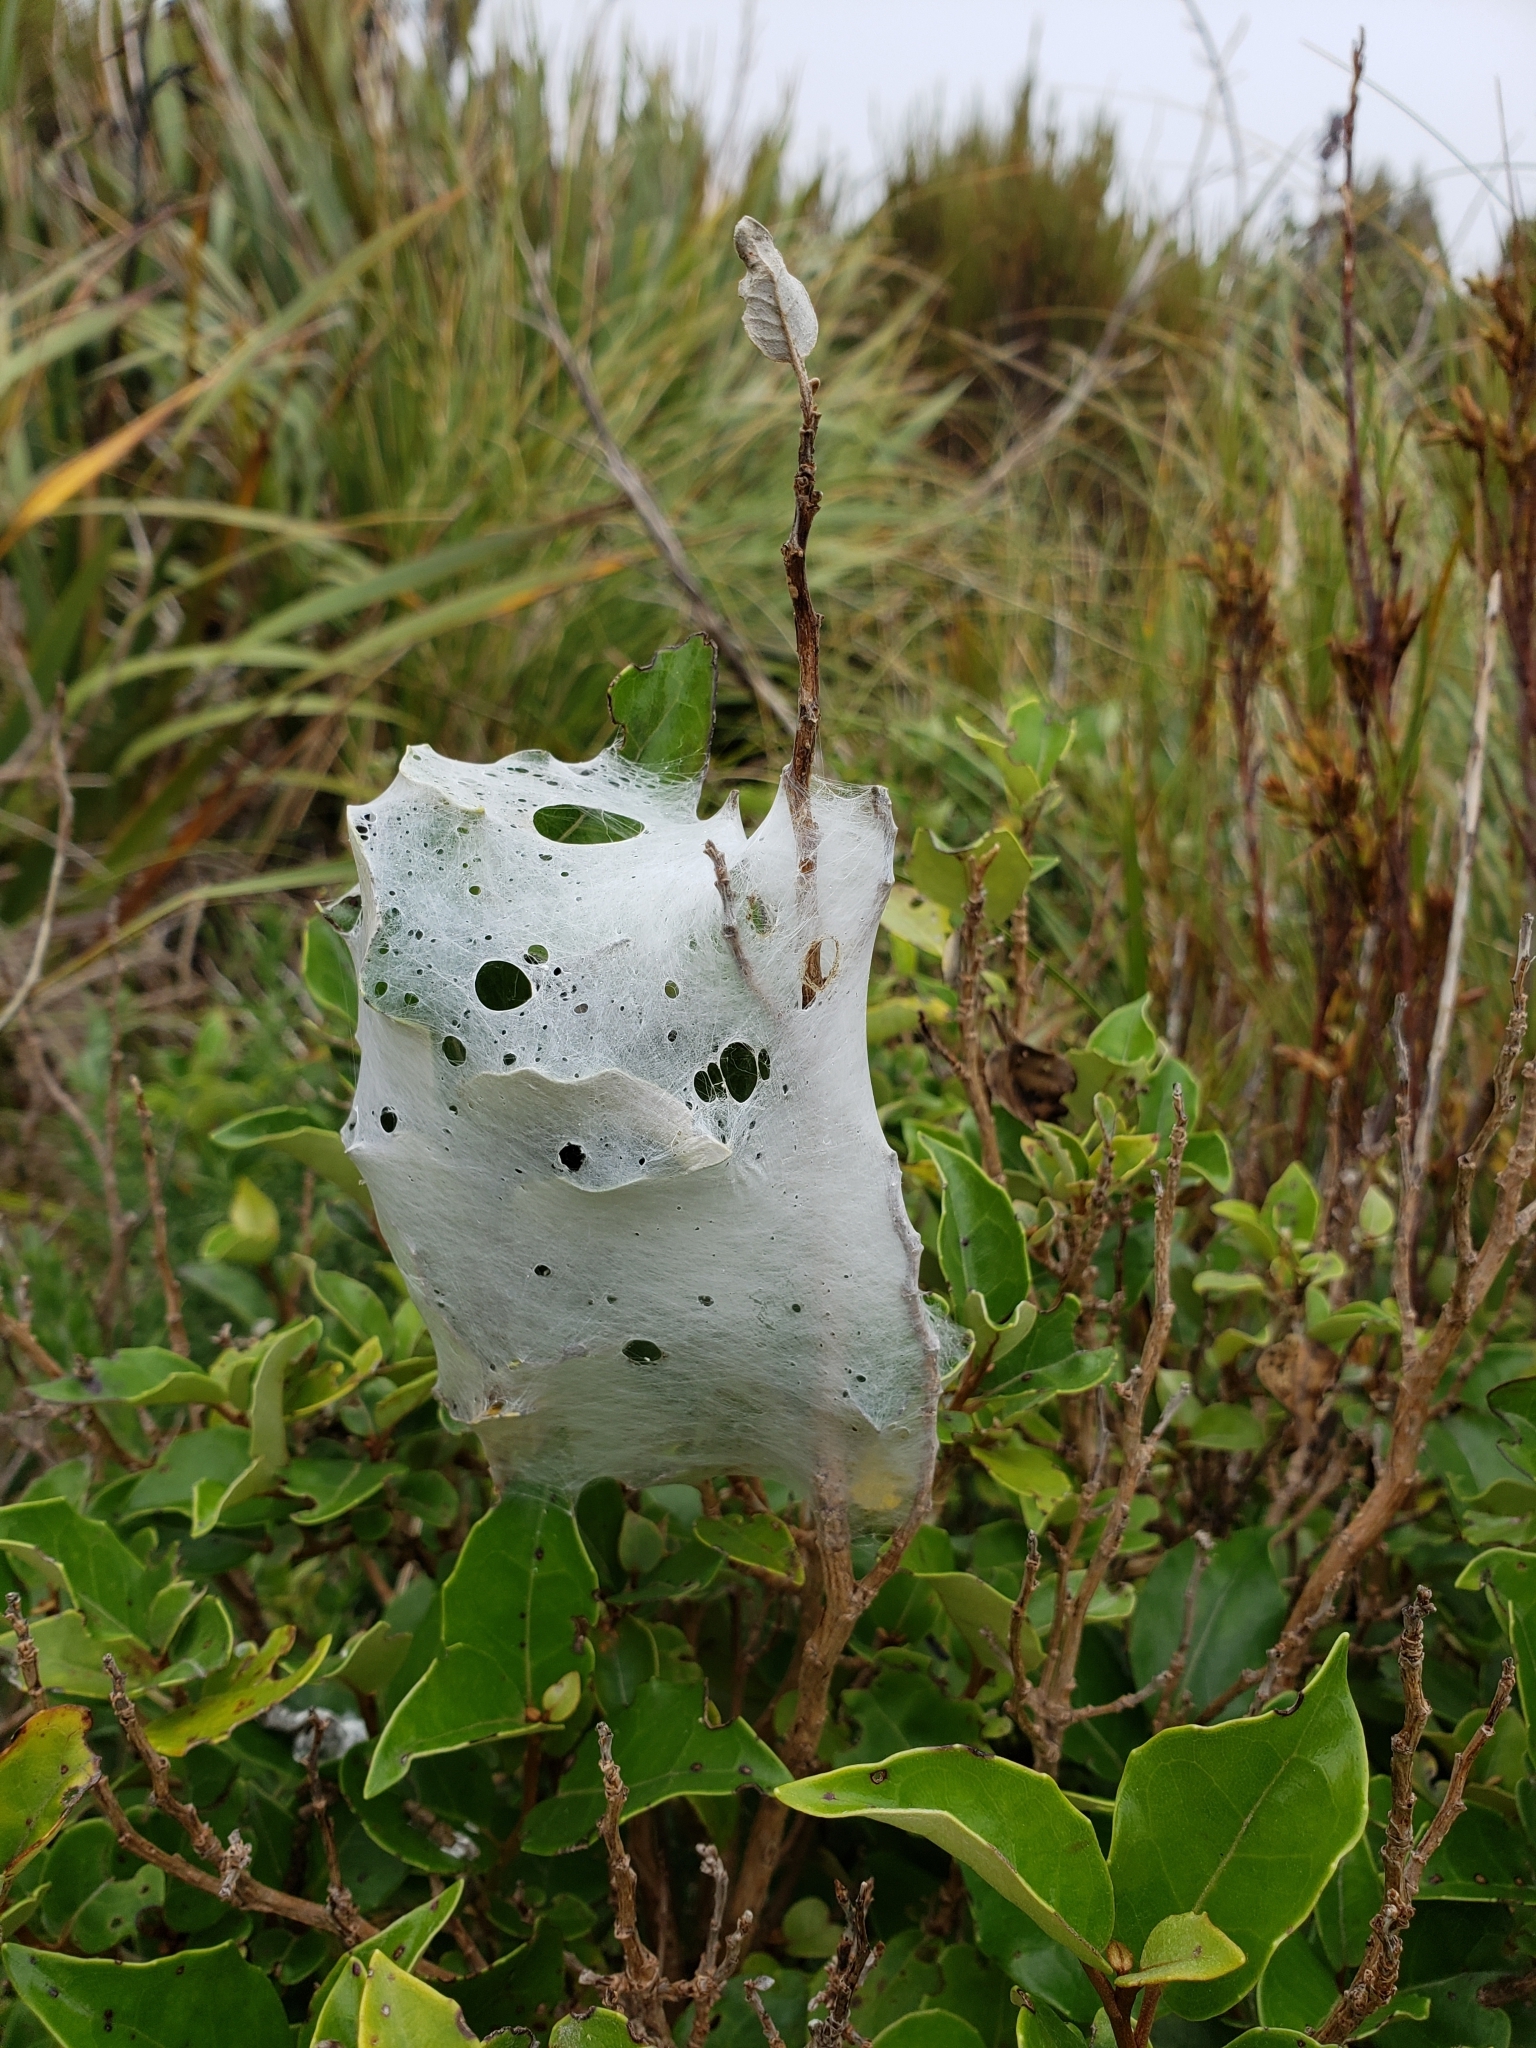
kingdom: Animalia
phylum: Arthropoda
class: Arachnida
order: Araneae
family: Pisauridae
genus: Dolomedes
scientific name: Dolomedes minor
